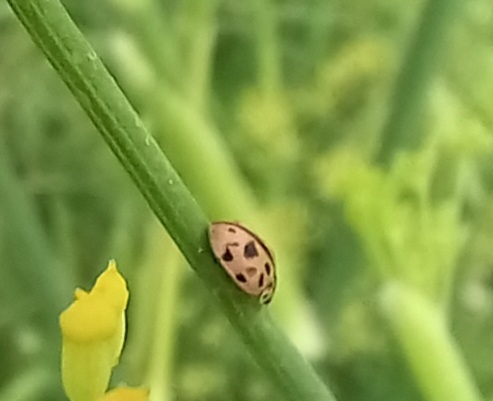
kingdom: Animalia
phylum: Arthropoda
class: Insecta
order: Coleoptera
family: Coccinellidae
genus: Oenopia
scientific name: Oenopia conglobata
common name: Ladybird beetle
